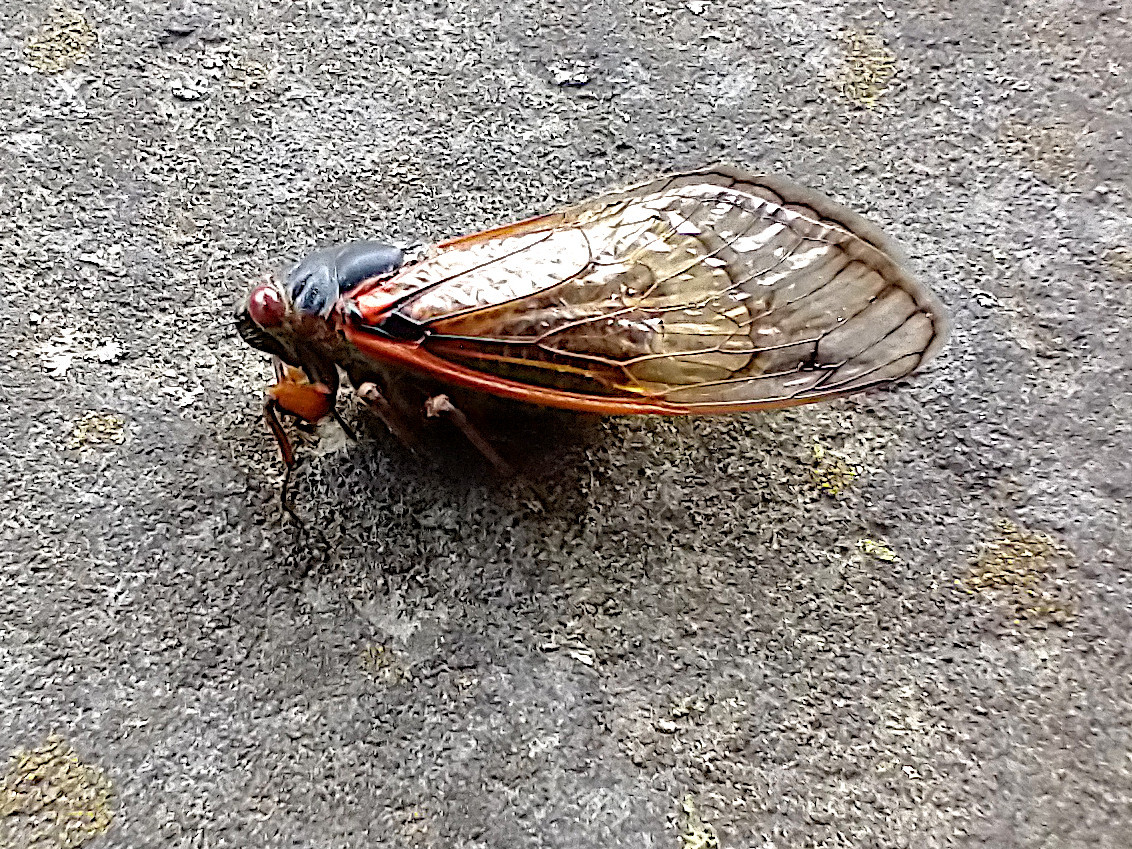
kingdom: Animalia
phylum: Arthropoda
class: Insecta
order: Hemiptera
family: Cicadidae
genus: Magicicada
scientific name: Magicicada septendecim
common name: Periodical cicada
